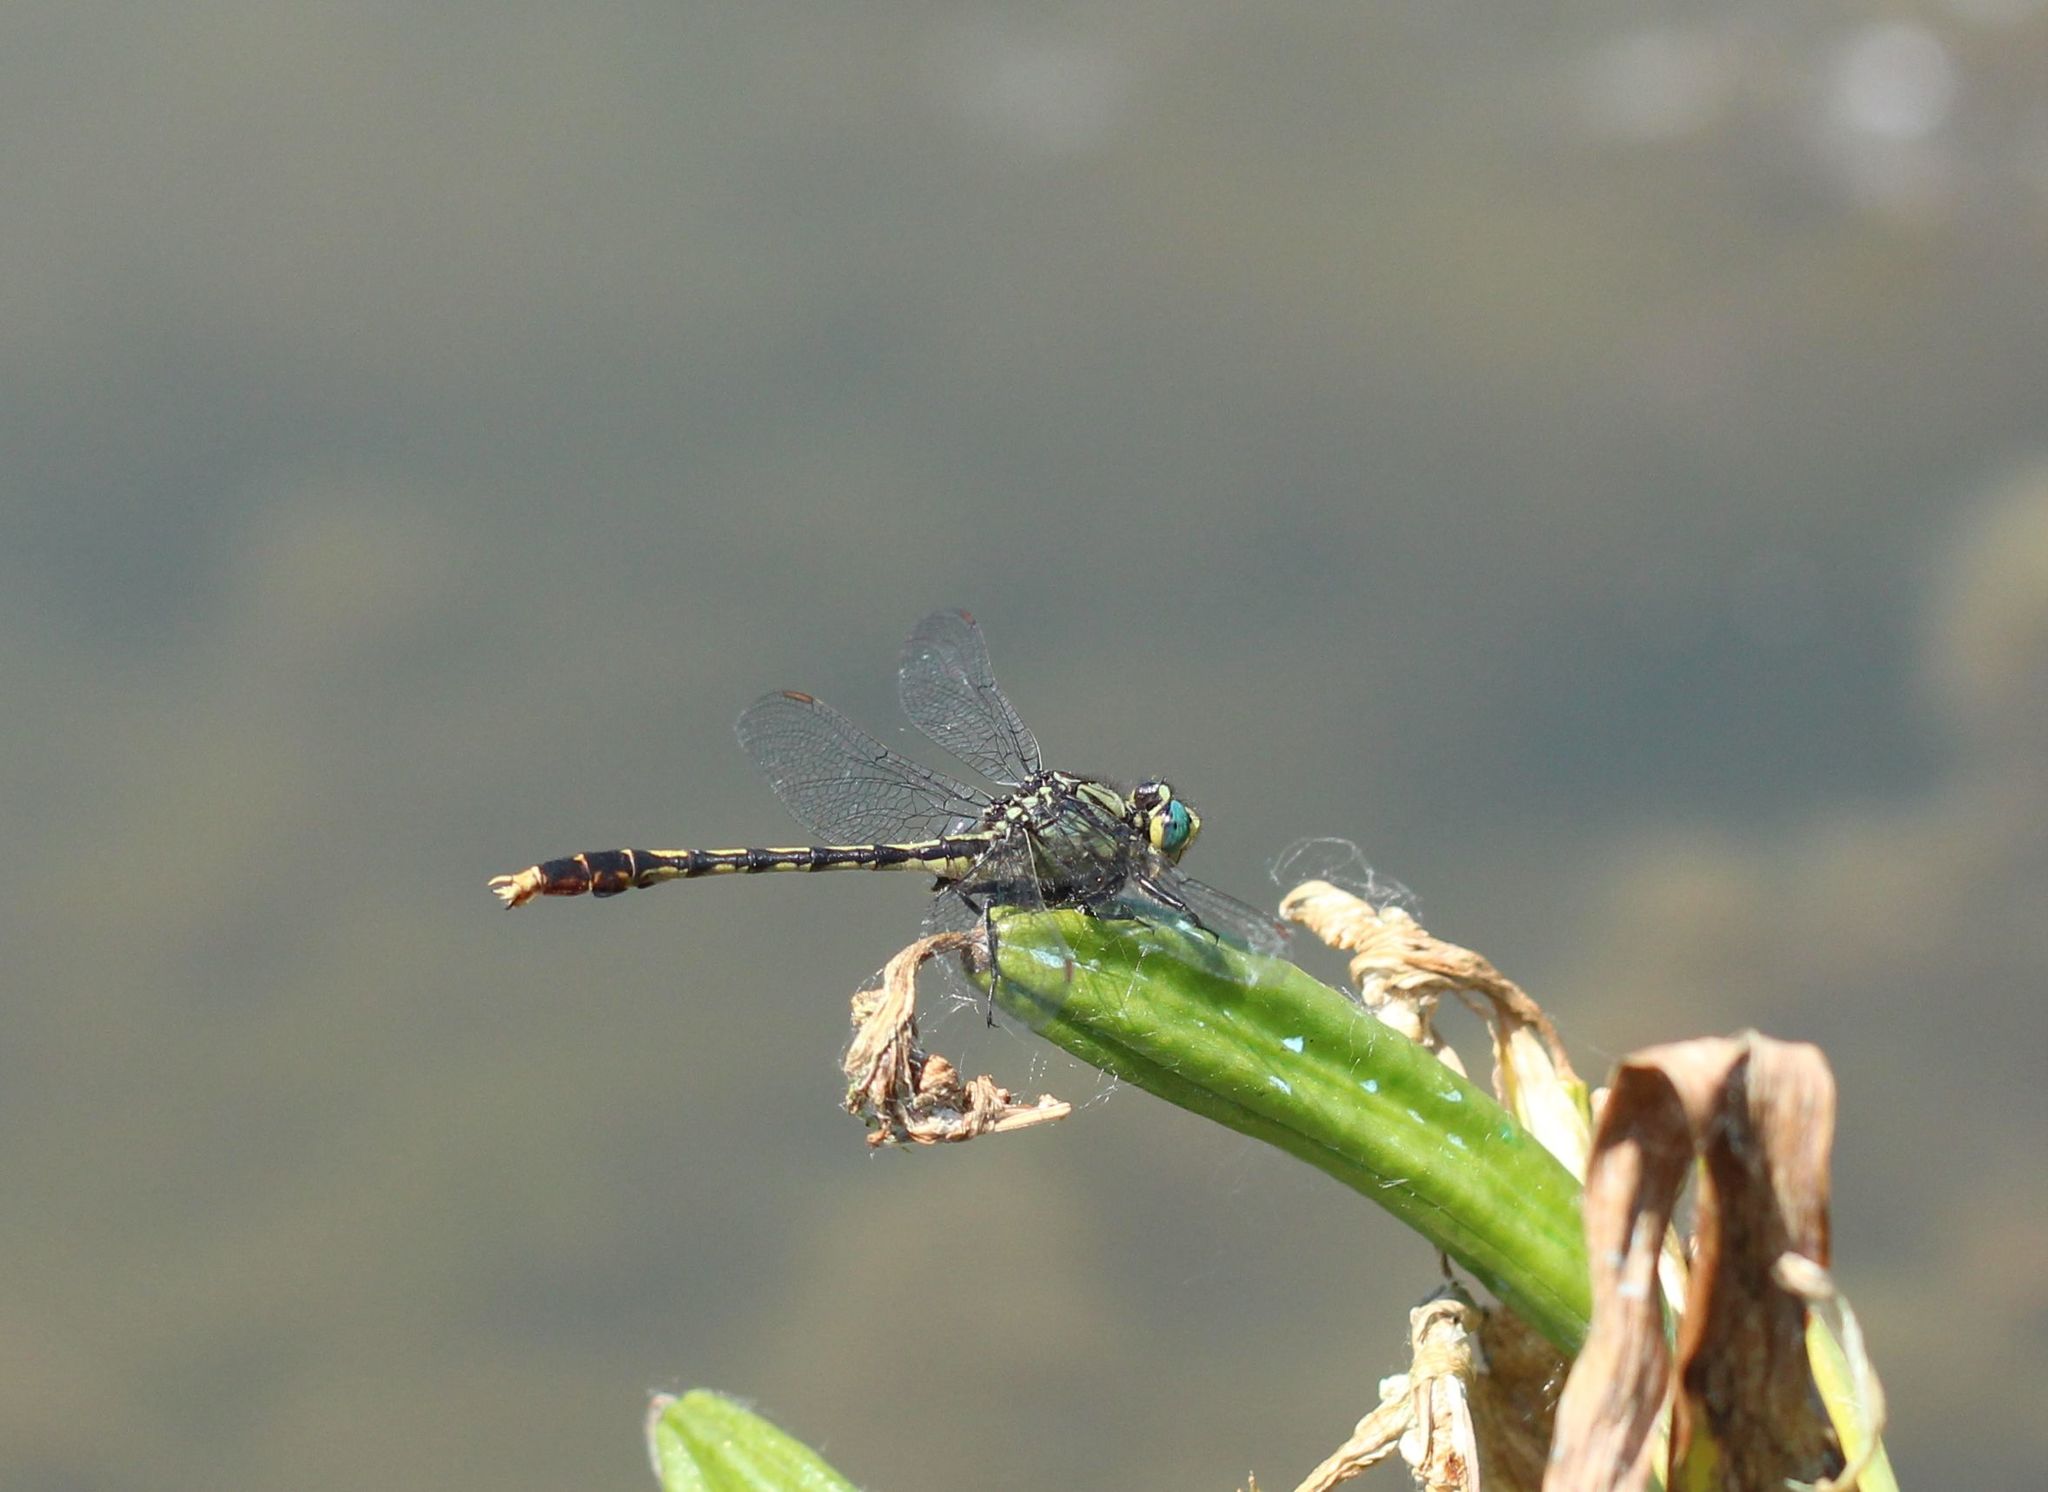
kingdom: Animalia
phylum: Arthropoda
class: Insecta
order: Odonata
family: Gomphidae
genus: Arigomphus
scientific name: Arigomphus villosipes
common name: Unicorn clubtail
